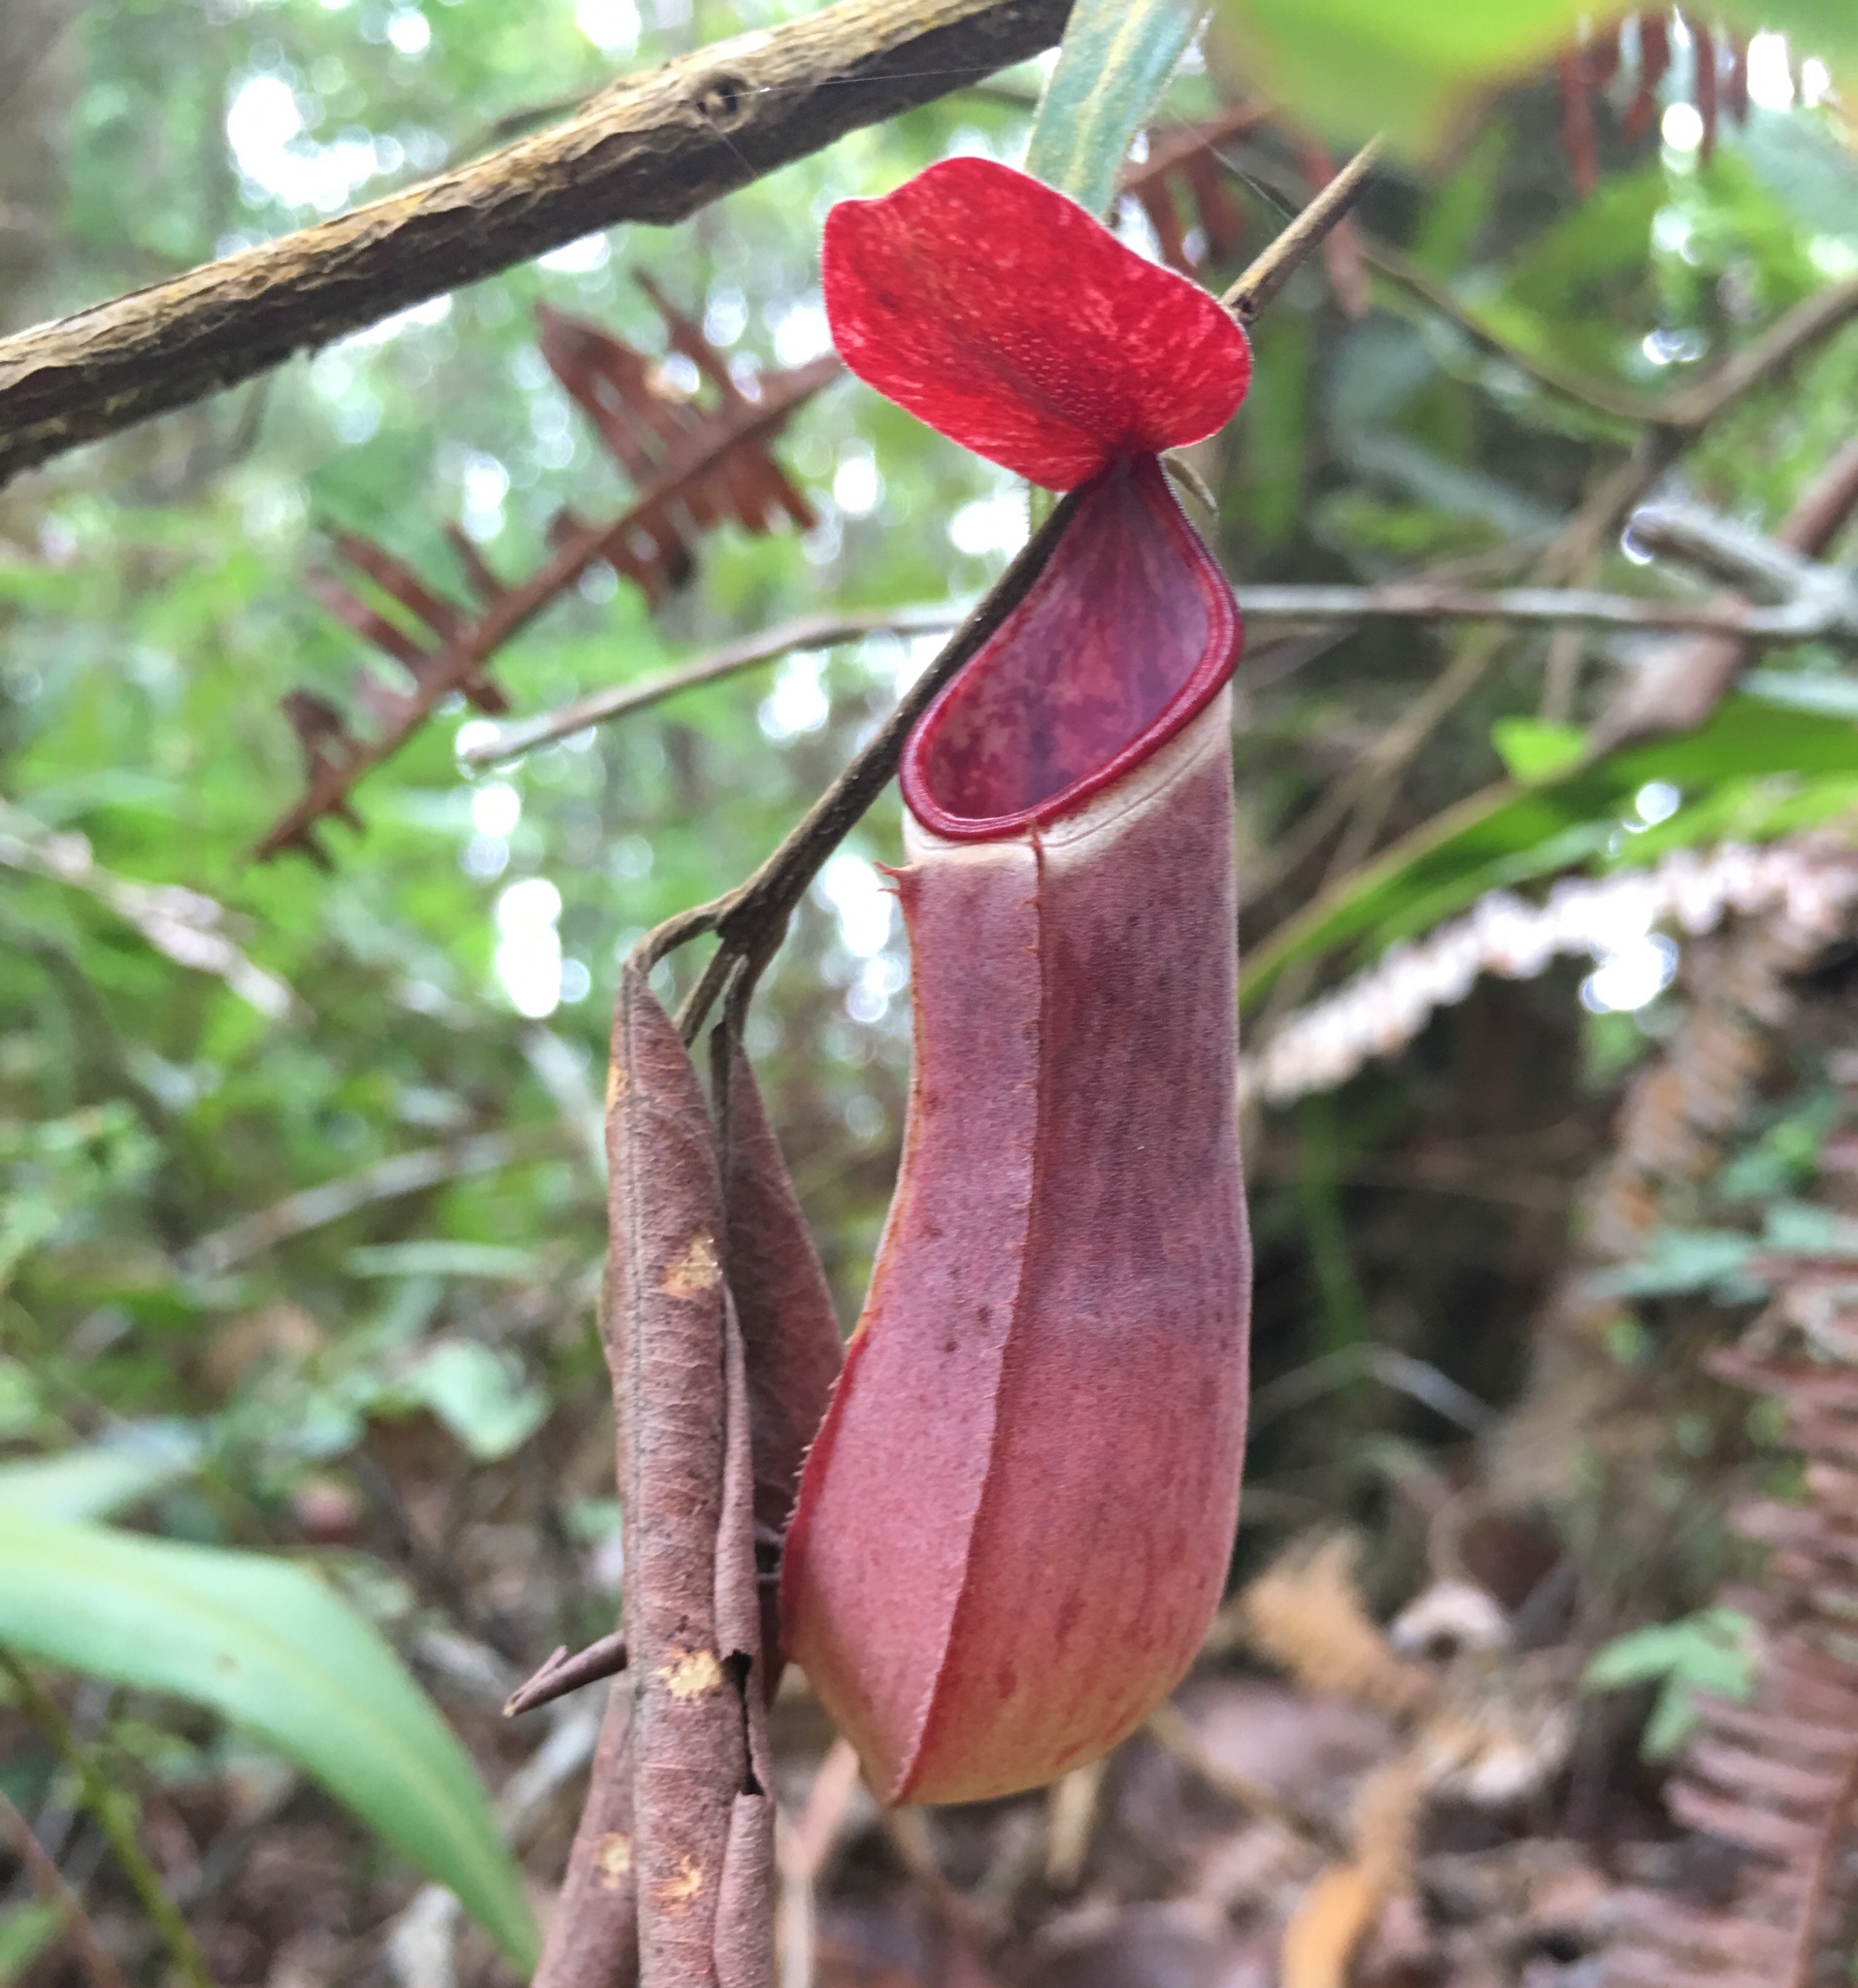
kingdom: Plantae
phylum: Tracheophyta
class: Magnoliopsida
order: Caryophyllales
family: Nepenthaceae
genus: Nepenthes
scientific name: Nepenthes albomarginata
